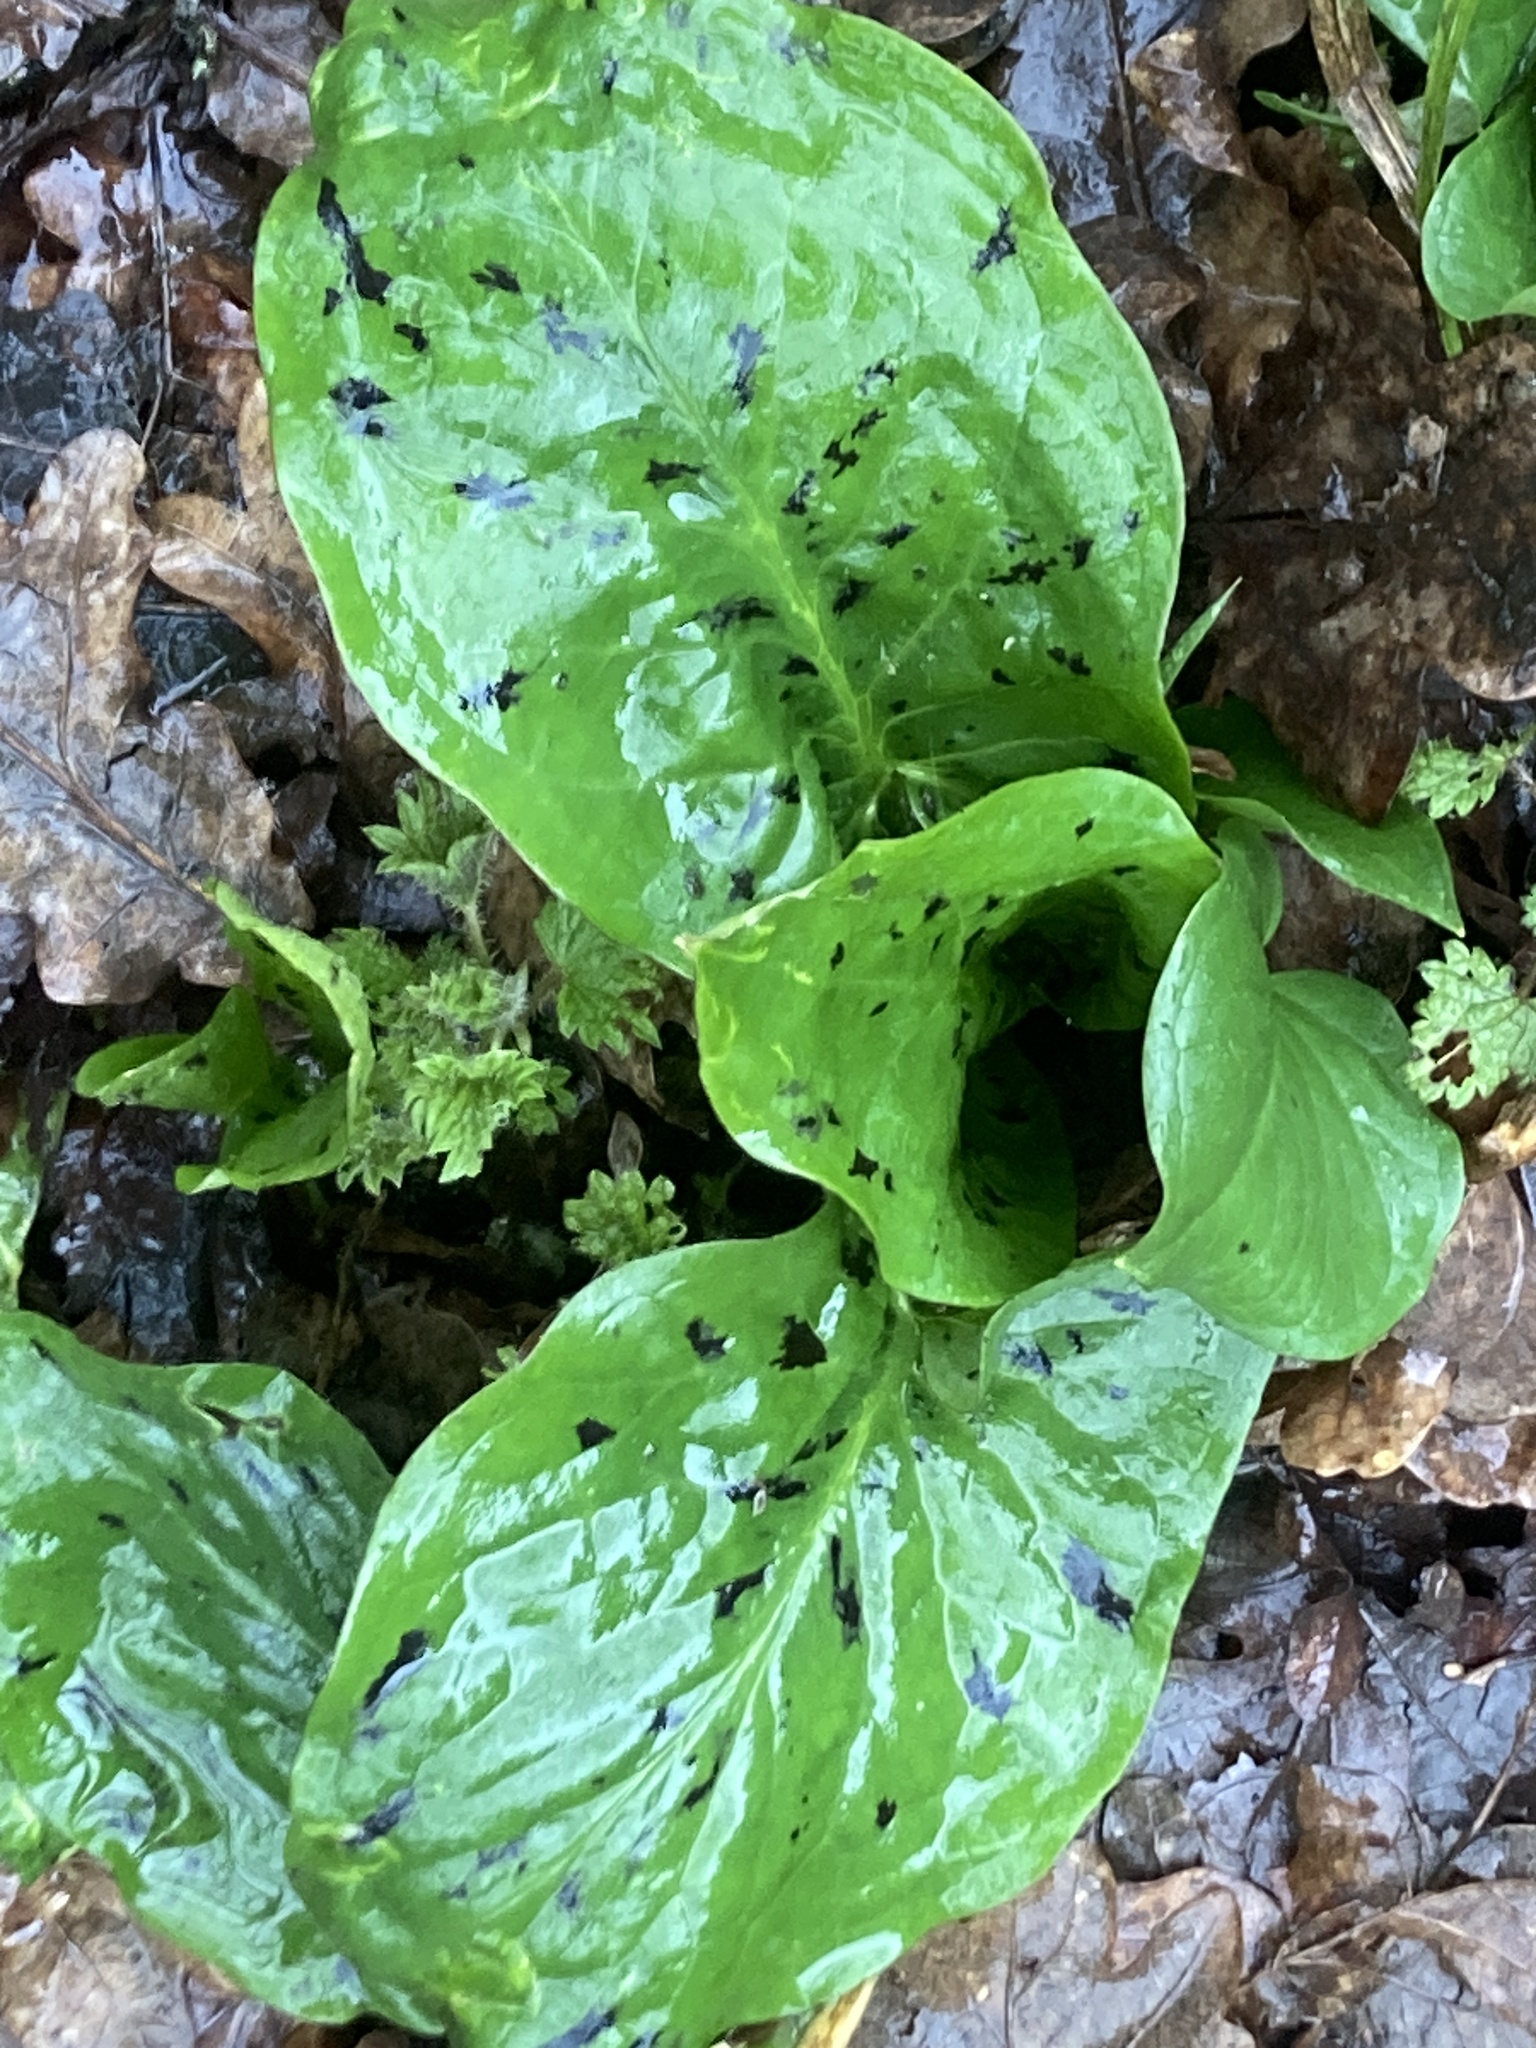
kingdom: Plantae
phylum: Tracheophyta
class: Liliopsida
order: Alismatales
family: Araceae
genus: Arum
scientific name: Arum maculatum
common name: Lords-and-ladies
